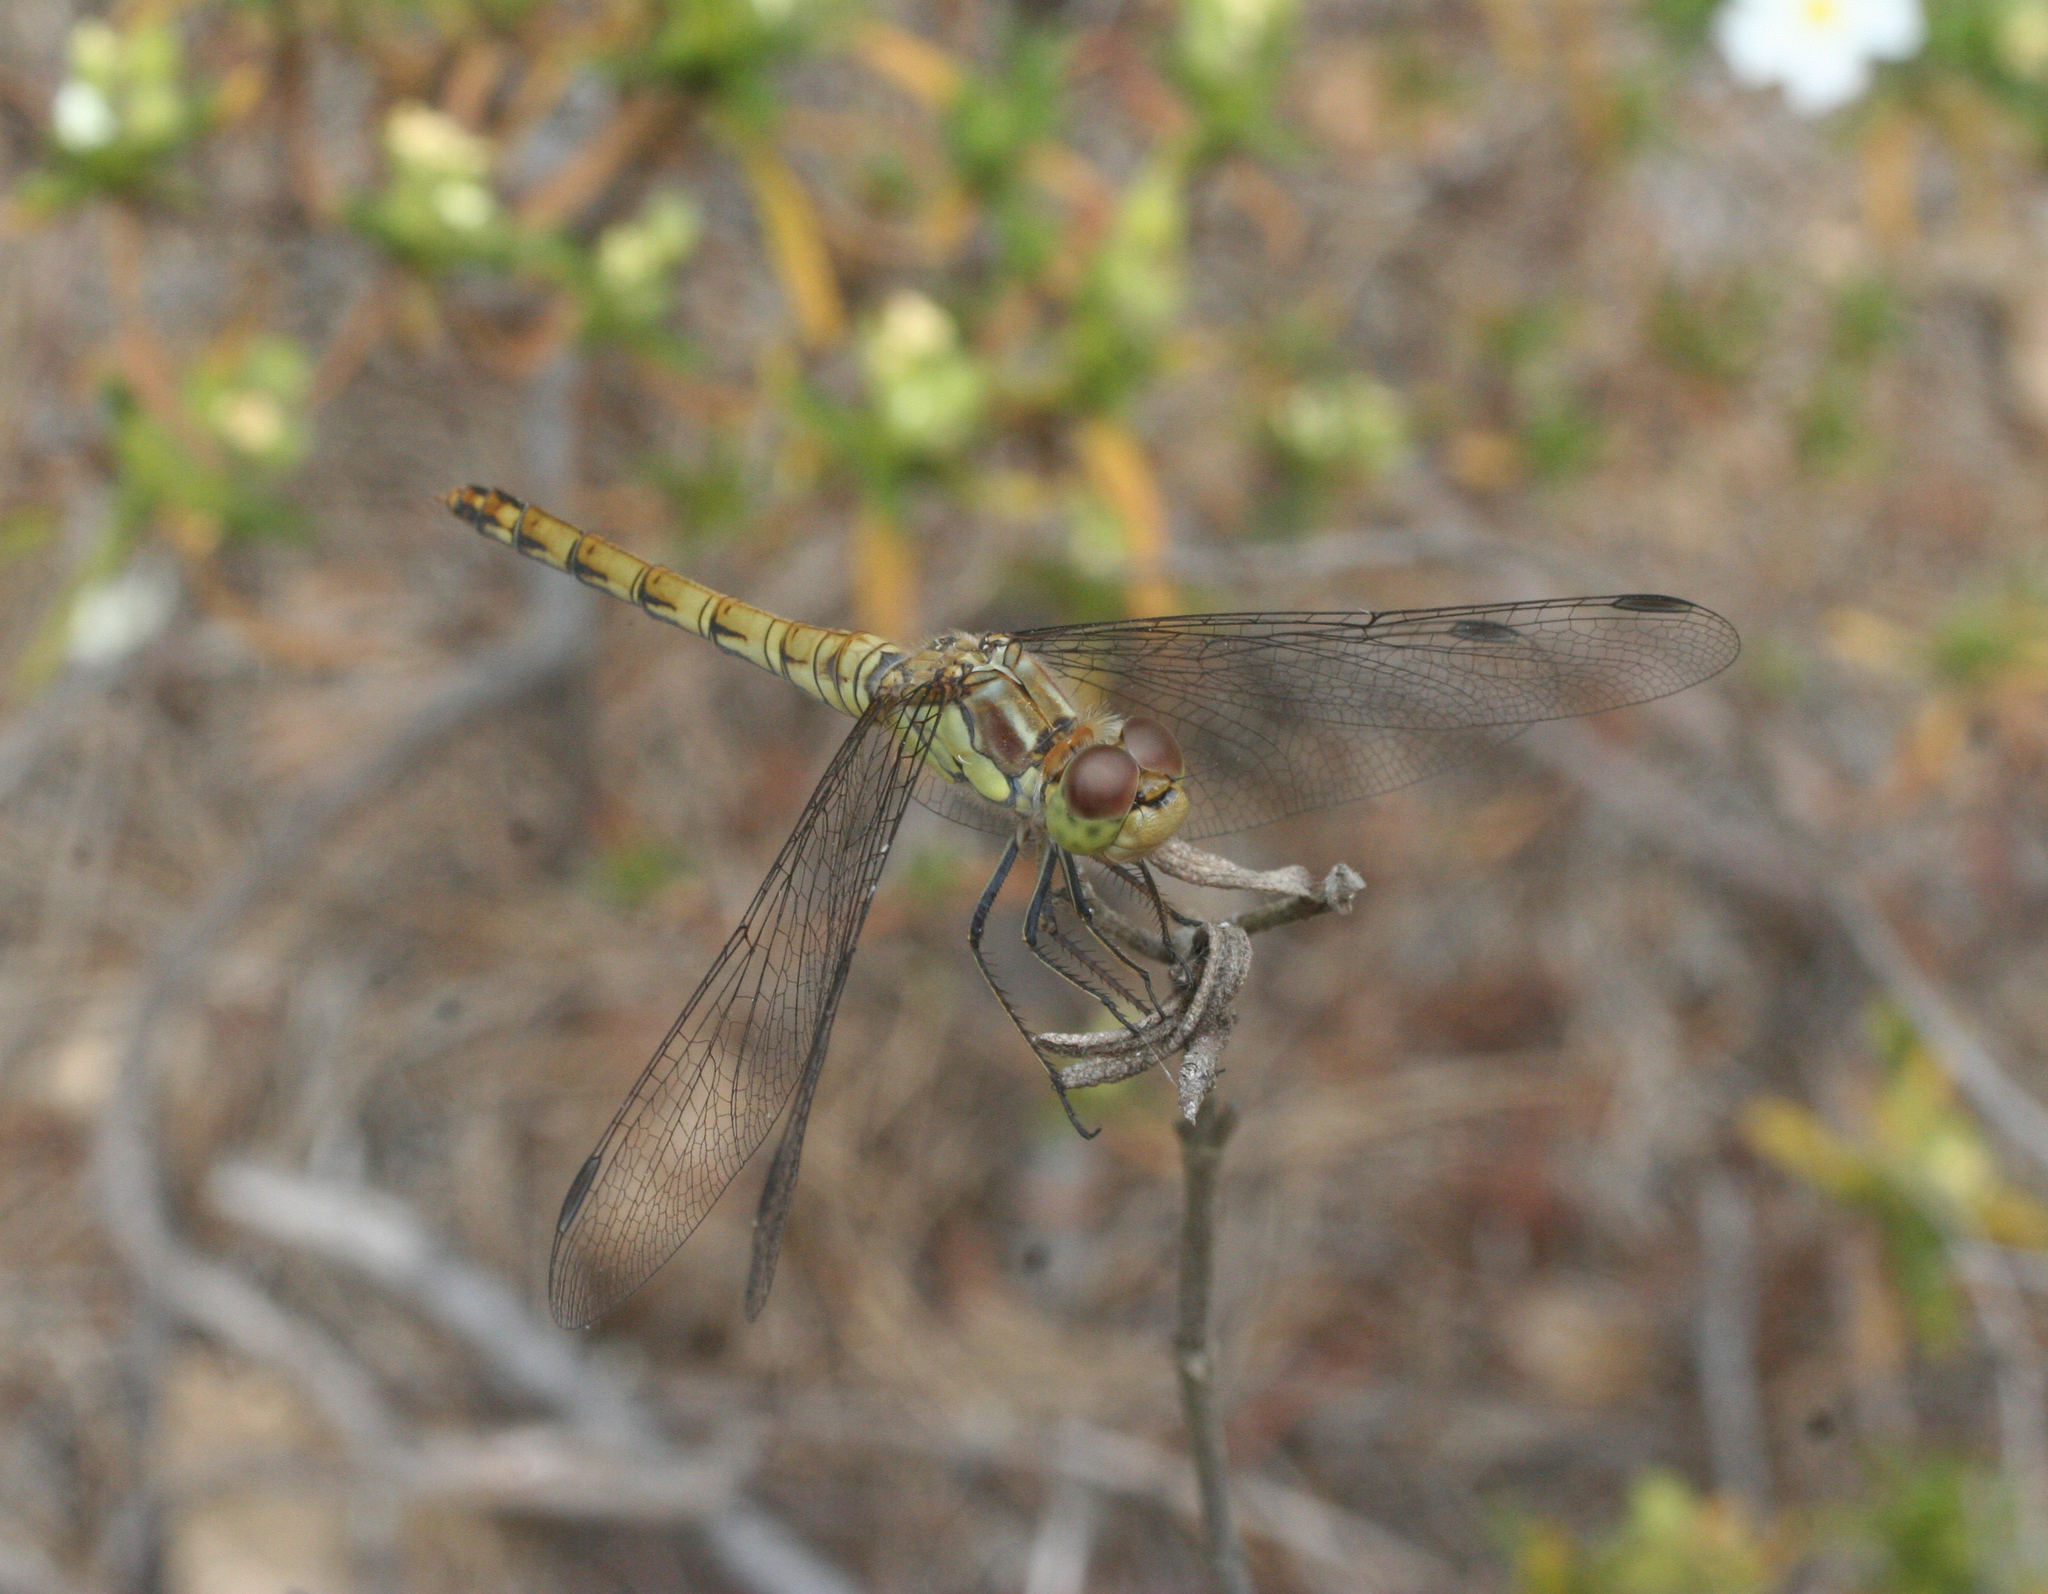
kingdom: Animalia
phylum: Arthropoda
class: Insecta
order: Odonata
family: Libellulidae
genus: Sympetrum
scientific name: Sympetrum striolatum
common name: Common darter
